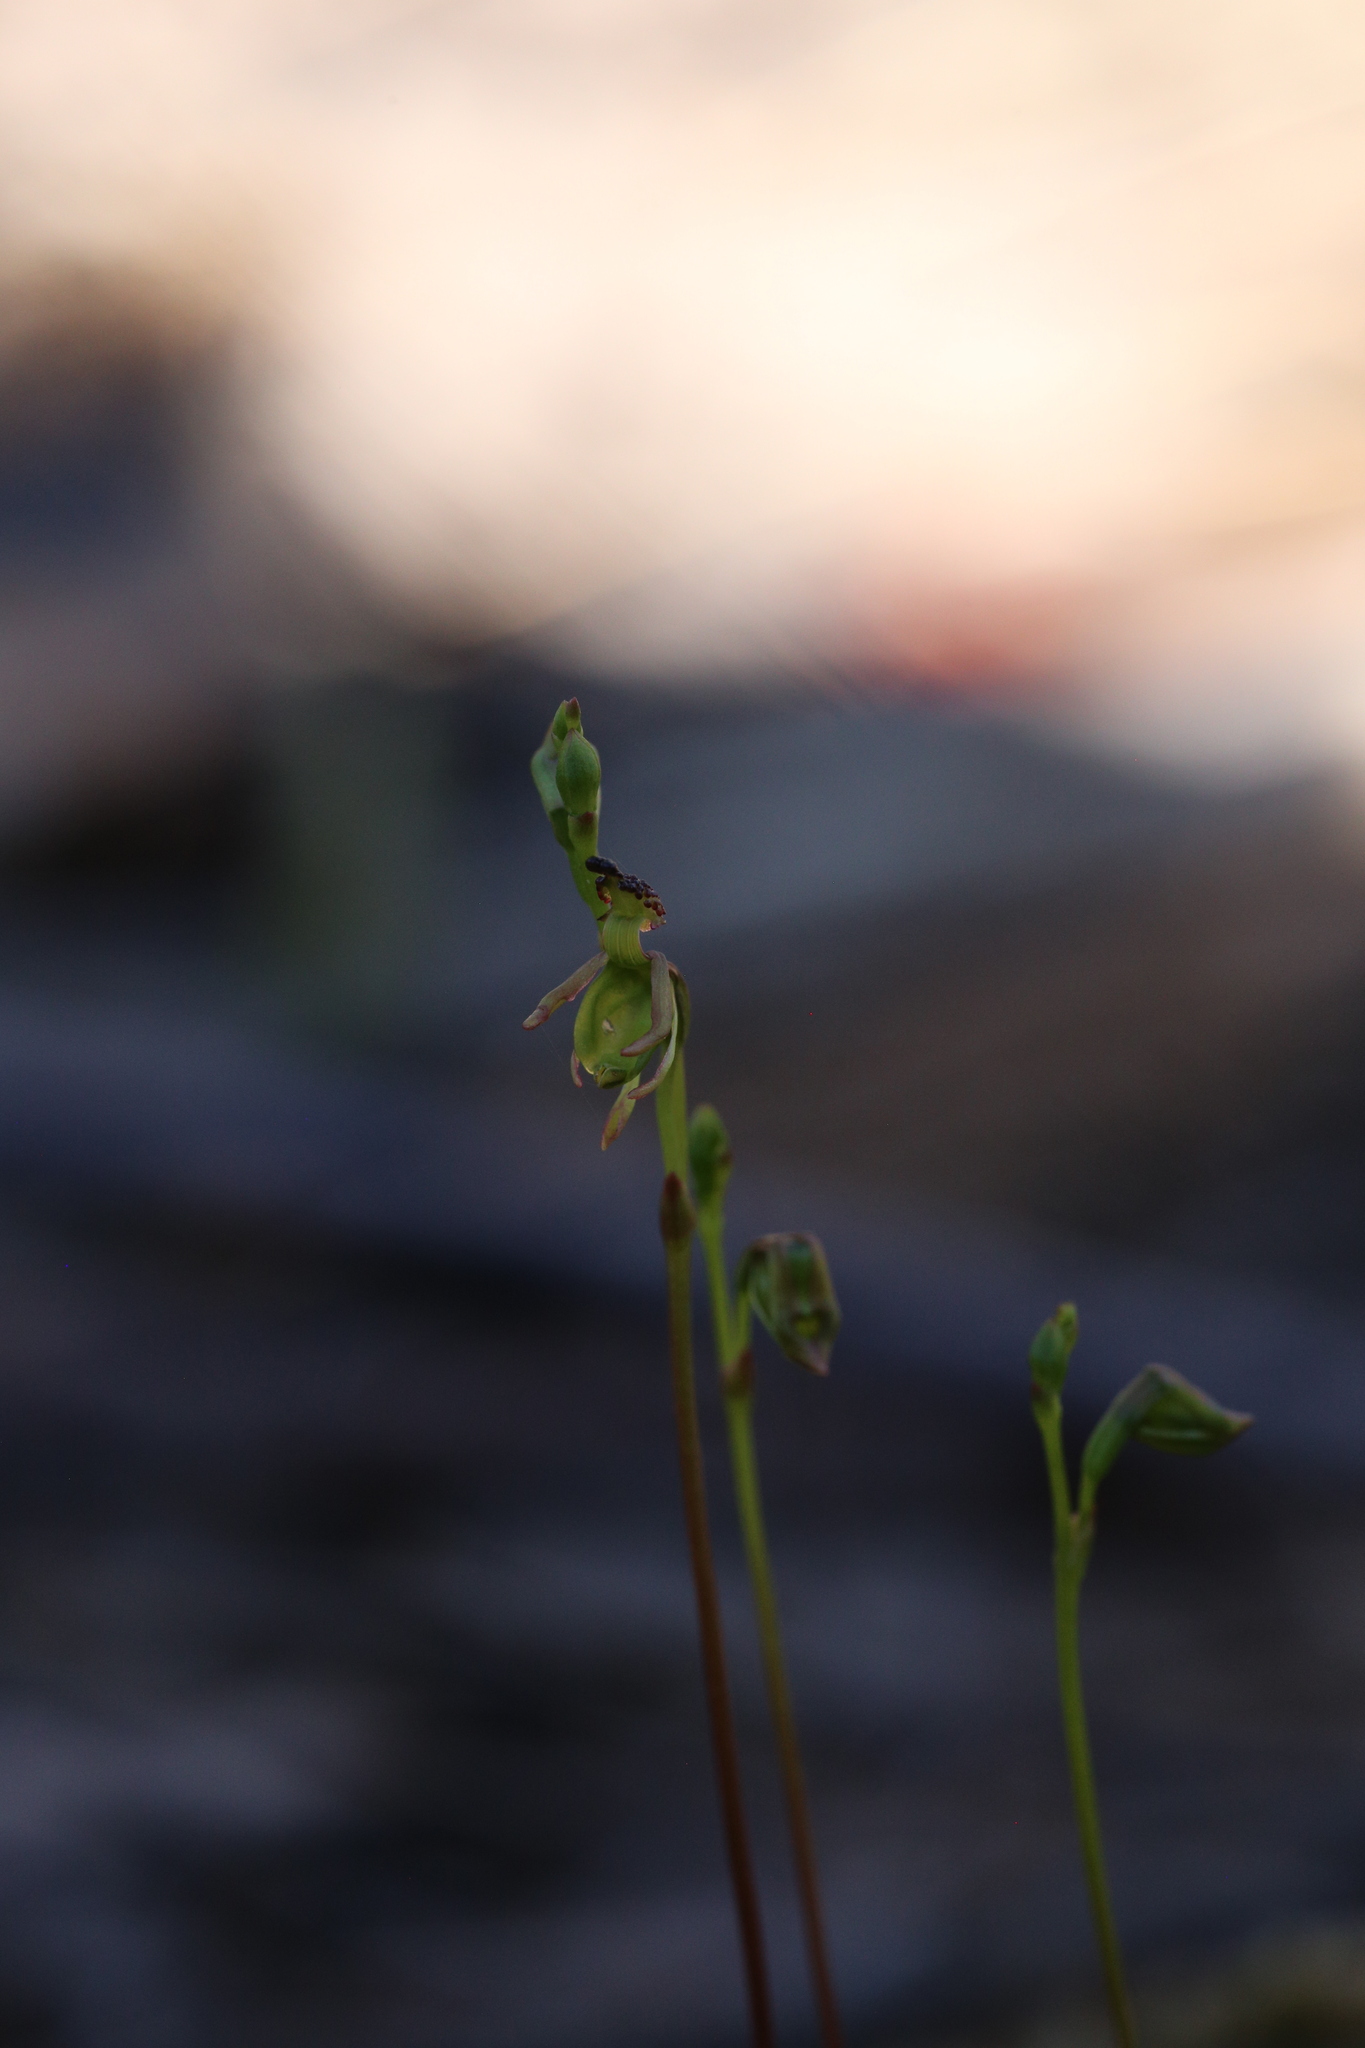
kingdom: Plantae
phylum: Tracheophyta
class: Liliopsida
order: Asparagales
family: Orchidaceae
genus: Caleana
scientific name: Caleana minor
